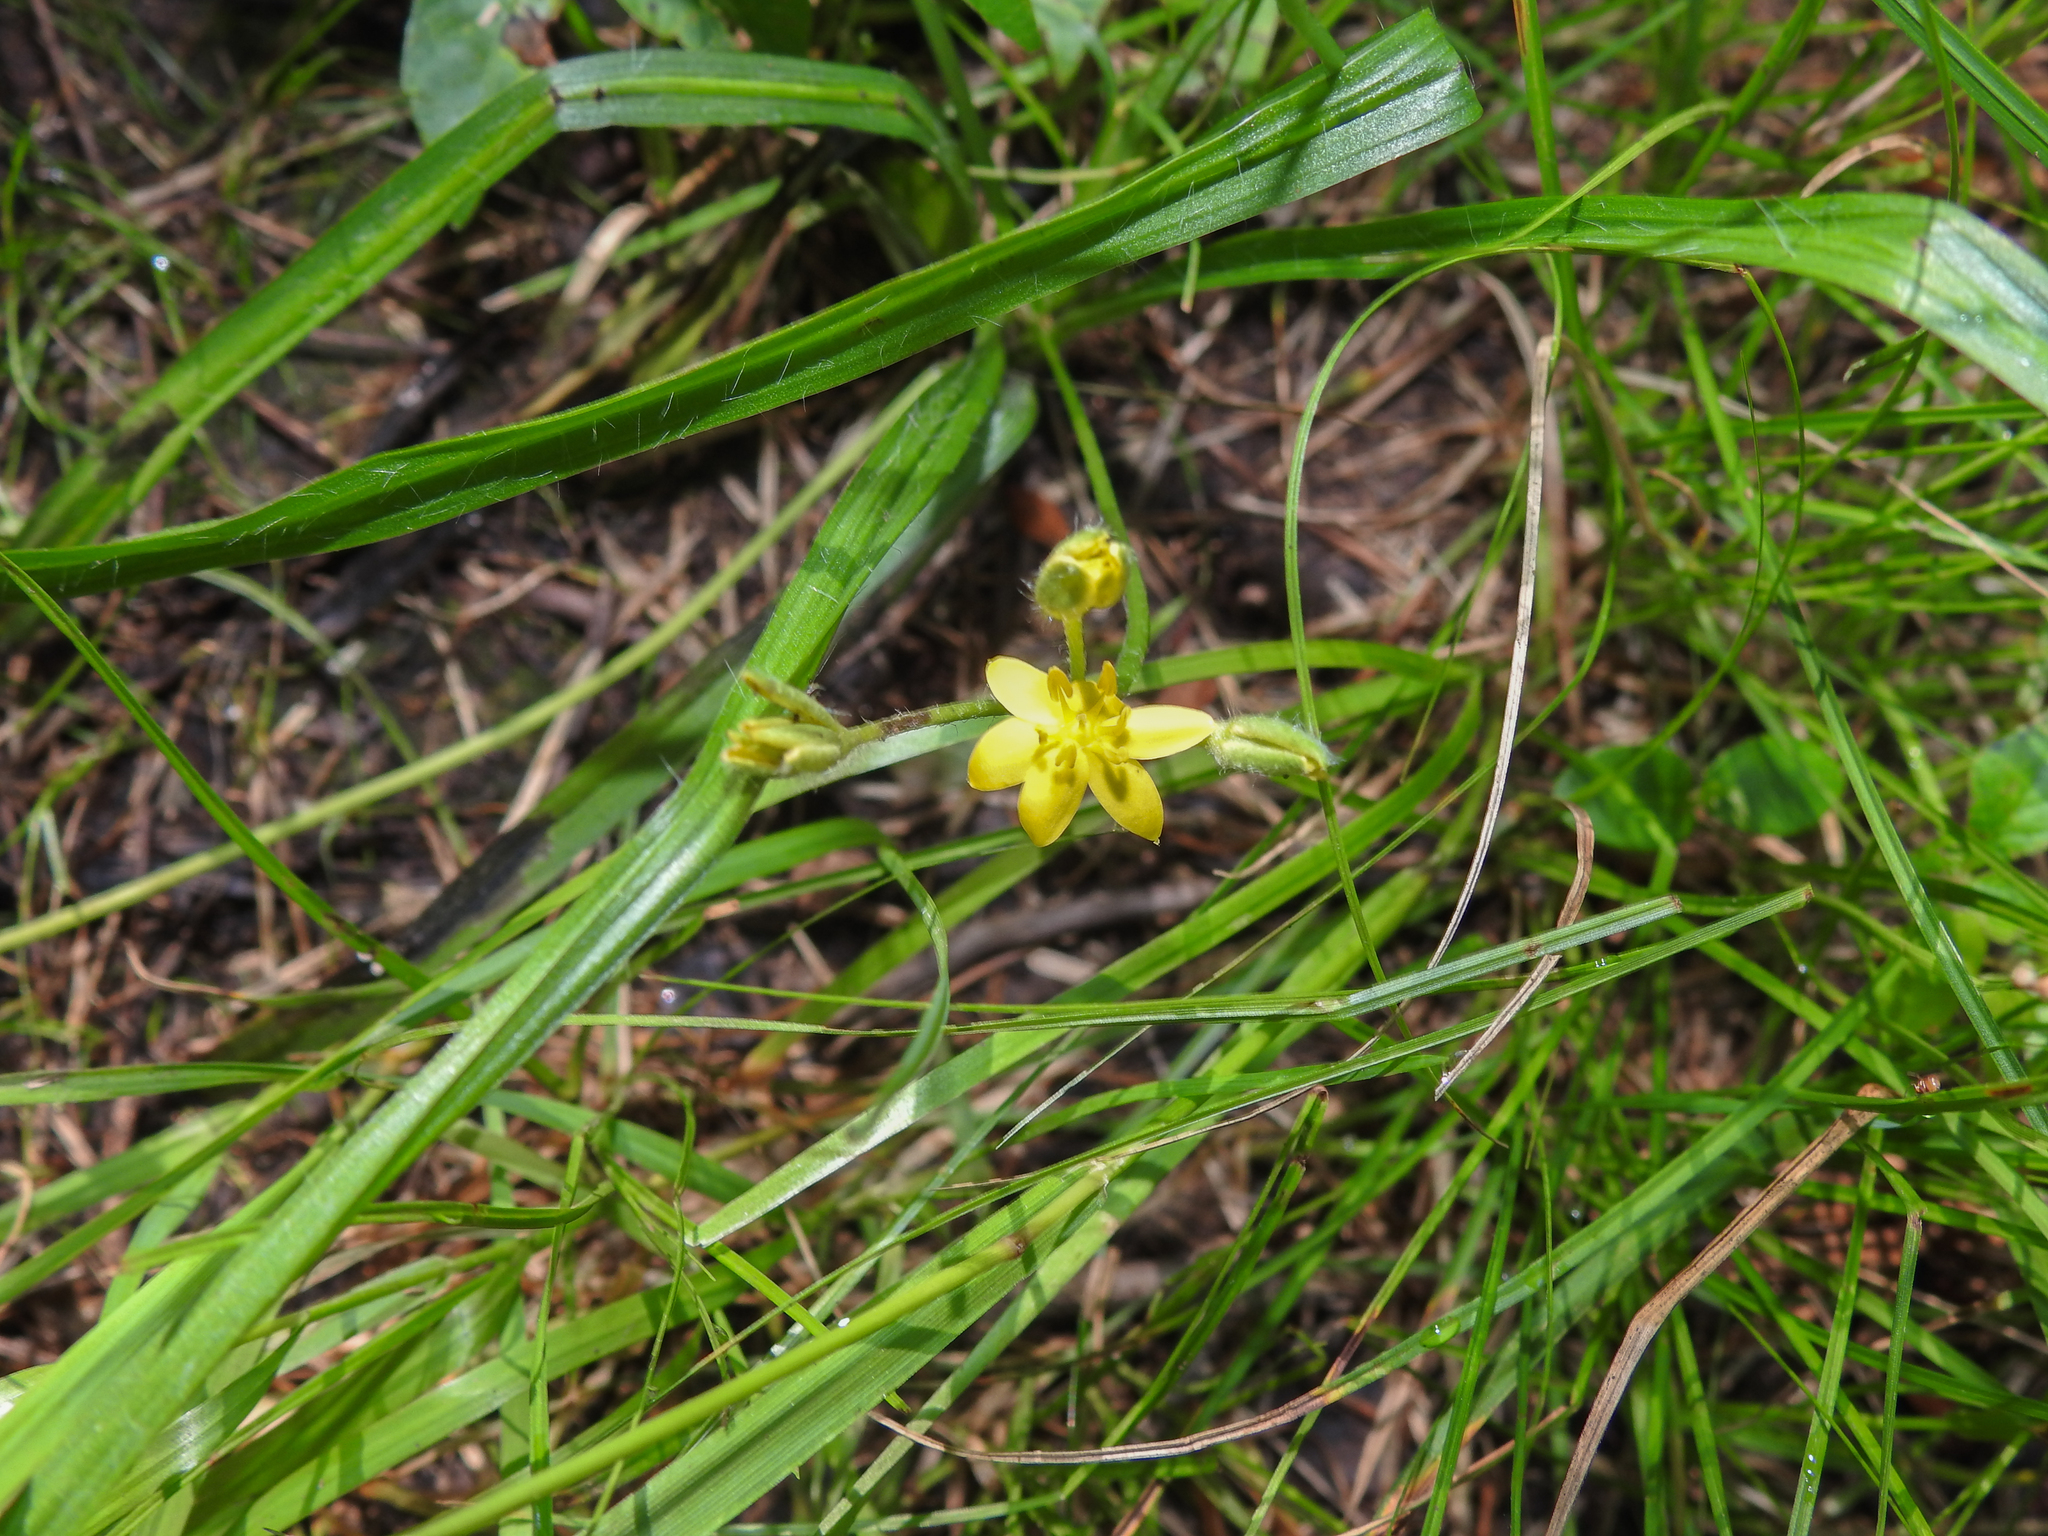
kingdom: Plantae
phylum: Tracheophyta
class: Liliopsida
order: Asparagales
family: Hypoxidaceae
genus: Hypoxis
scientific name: Hypoxis hirsuta
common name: Common goldstar
